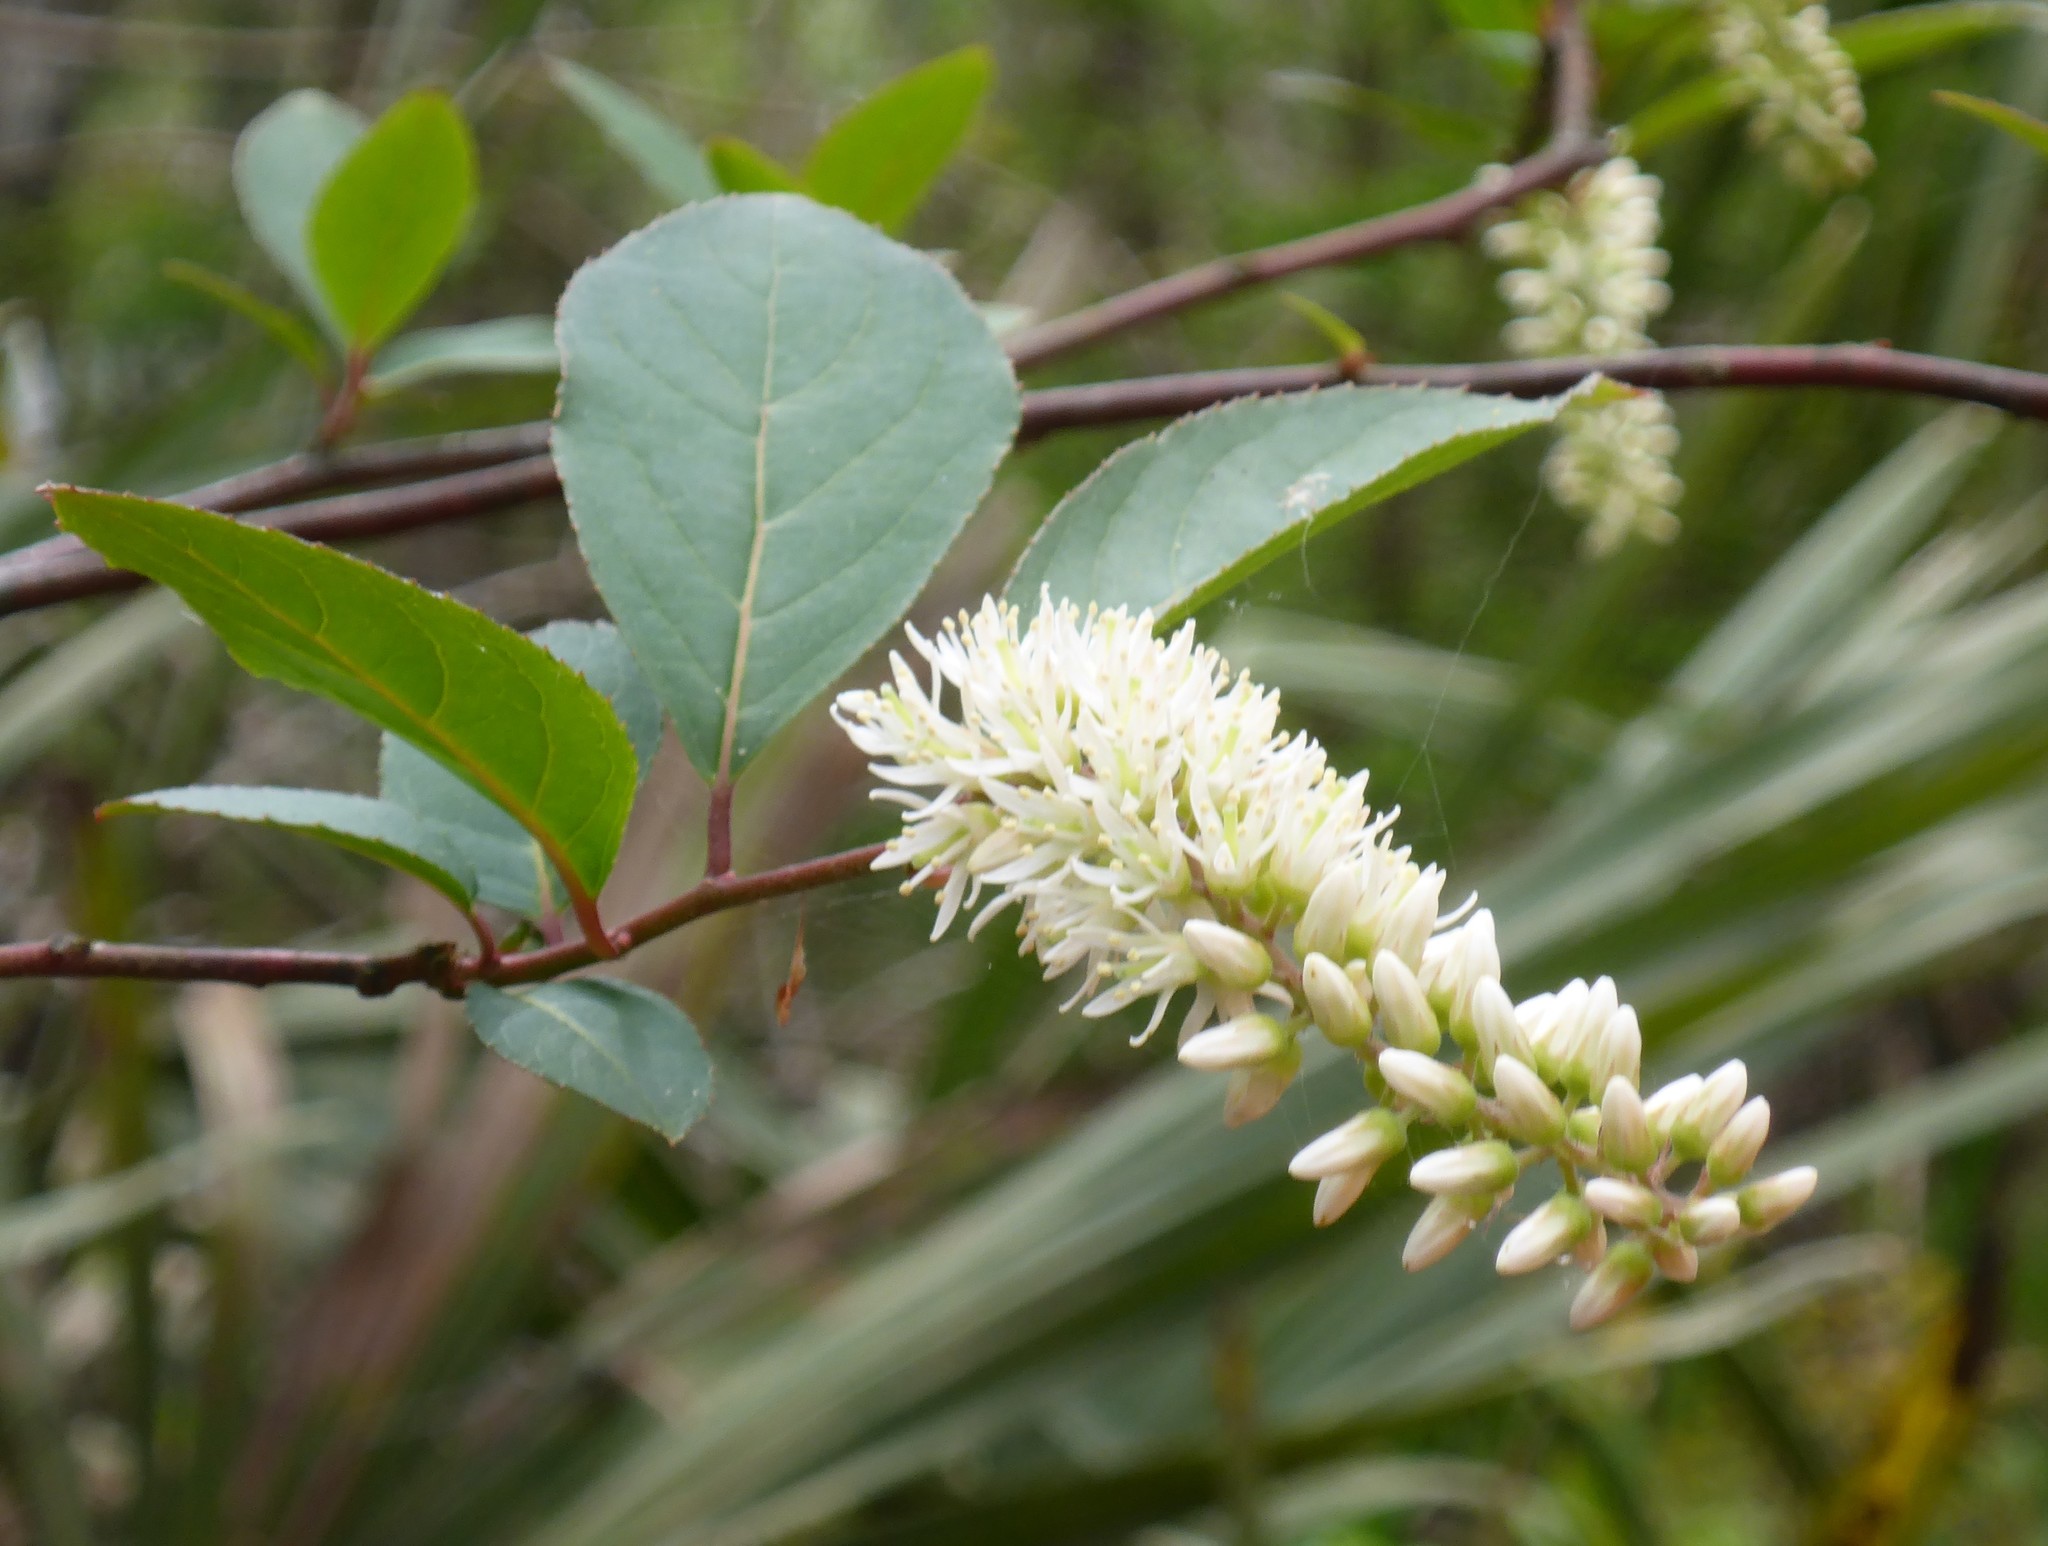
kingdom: Plantae
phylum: Tracheophyta
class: Magnoliopsida
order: Saxifragales
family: Iteaceae
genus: Itea
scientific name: Itea virginica
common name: Sweetspire
